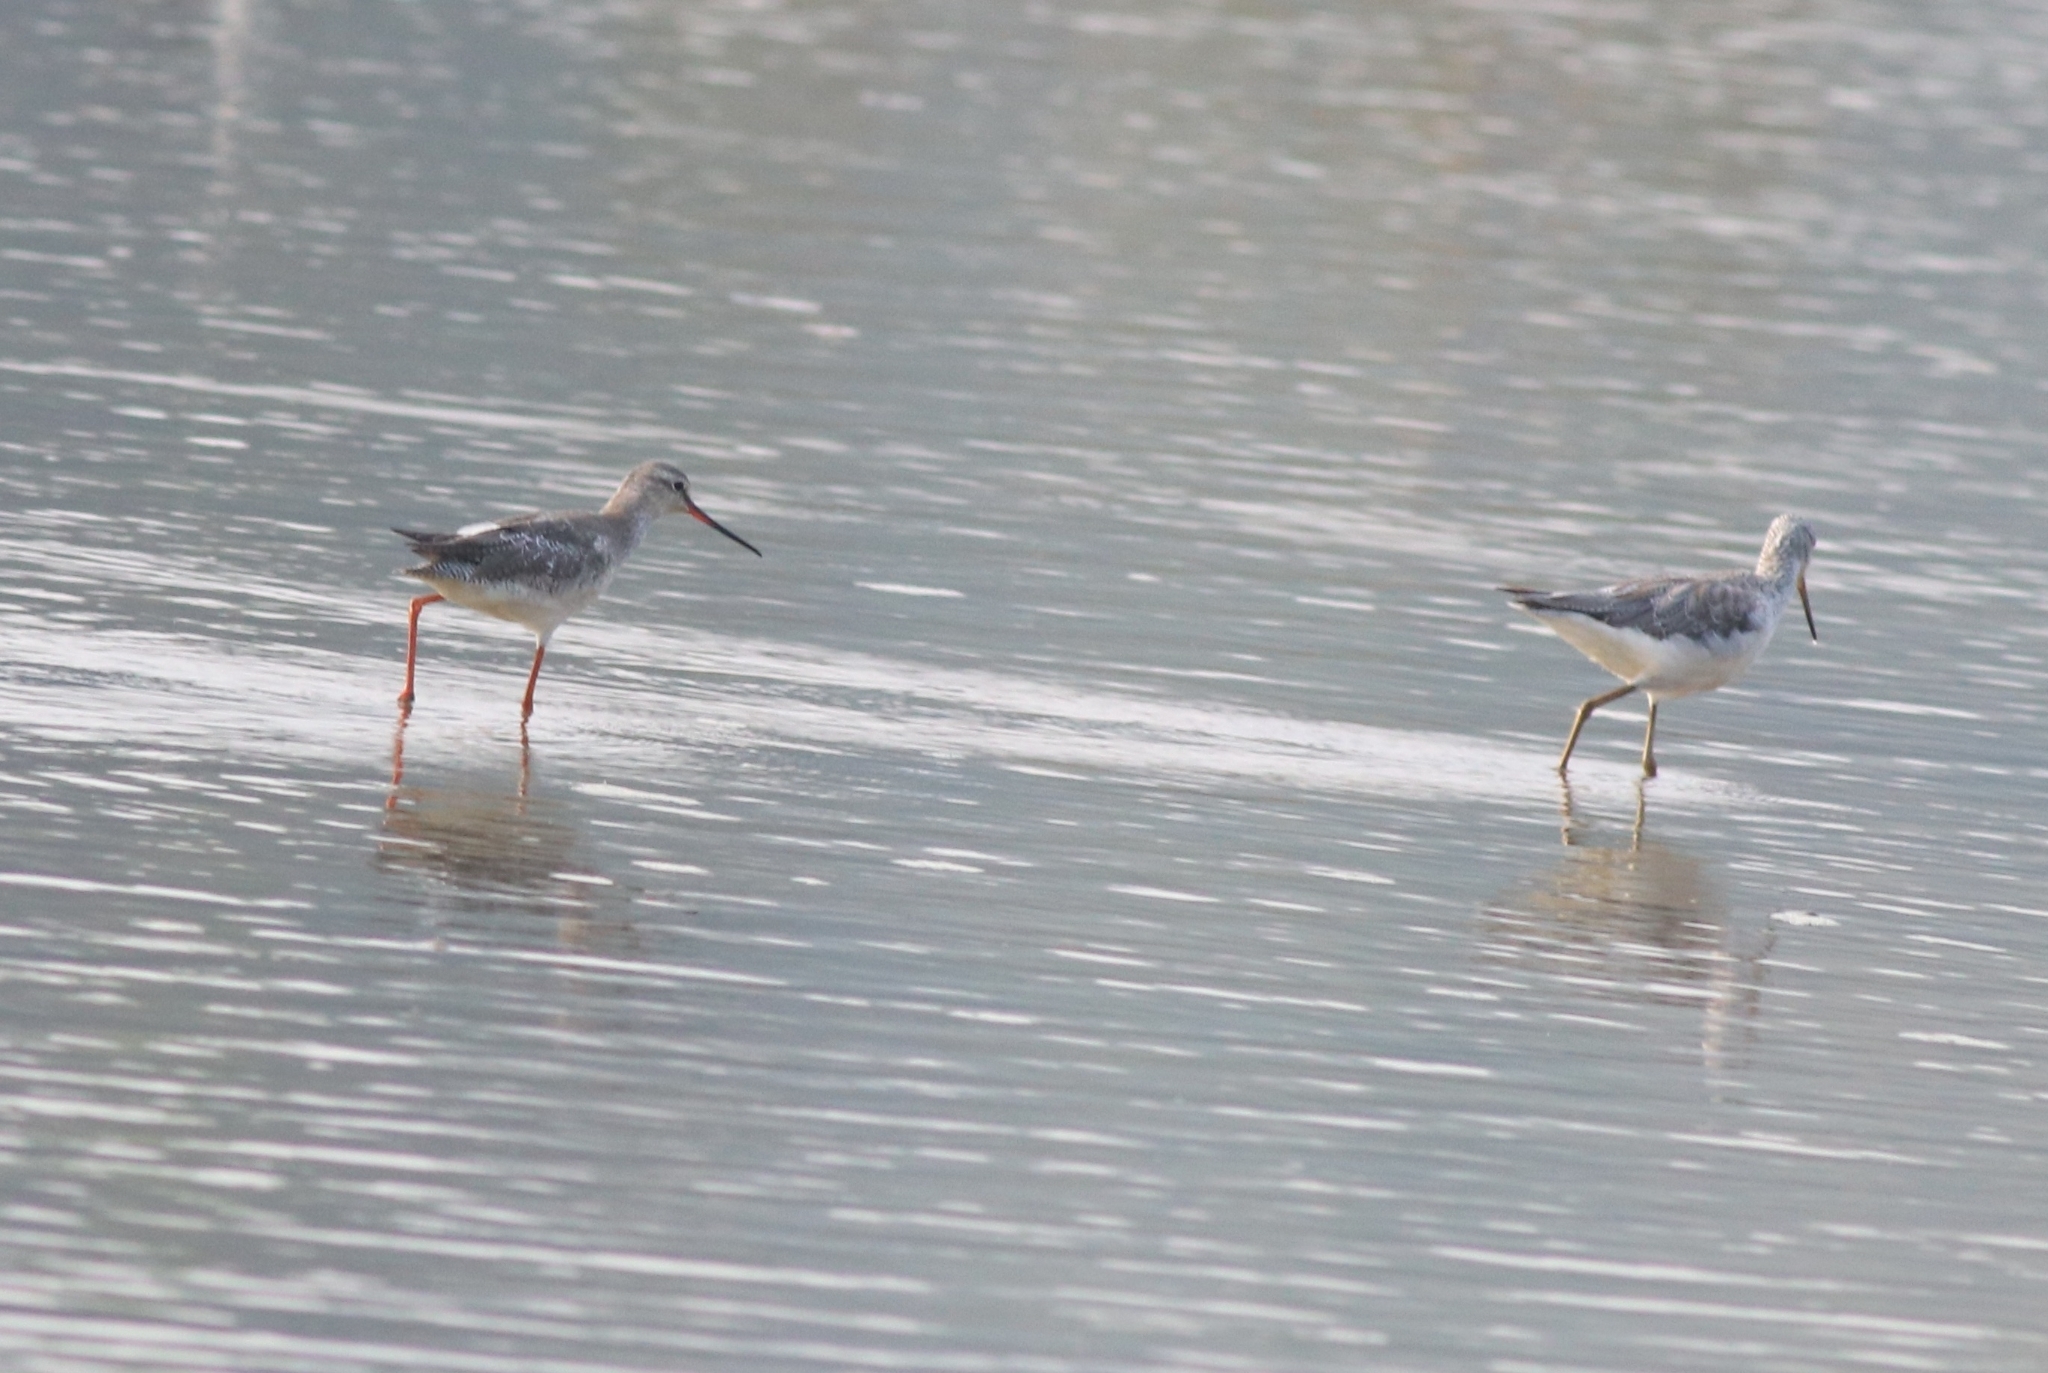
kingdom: Animalia
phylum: Chordata
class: Aves
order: Charadriiformes
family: Scolopacidae
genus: Tringa
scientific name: Tringa nebularia
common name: Common greenshank
